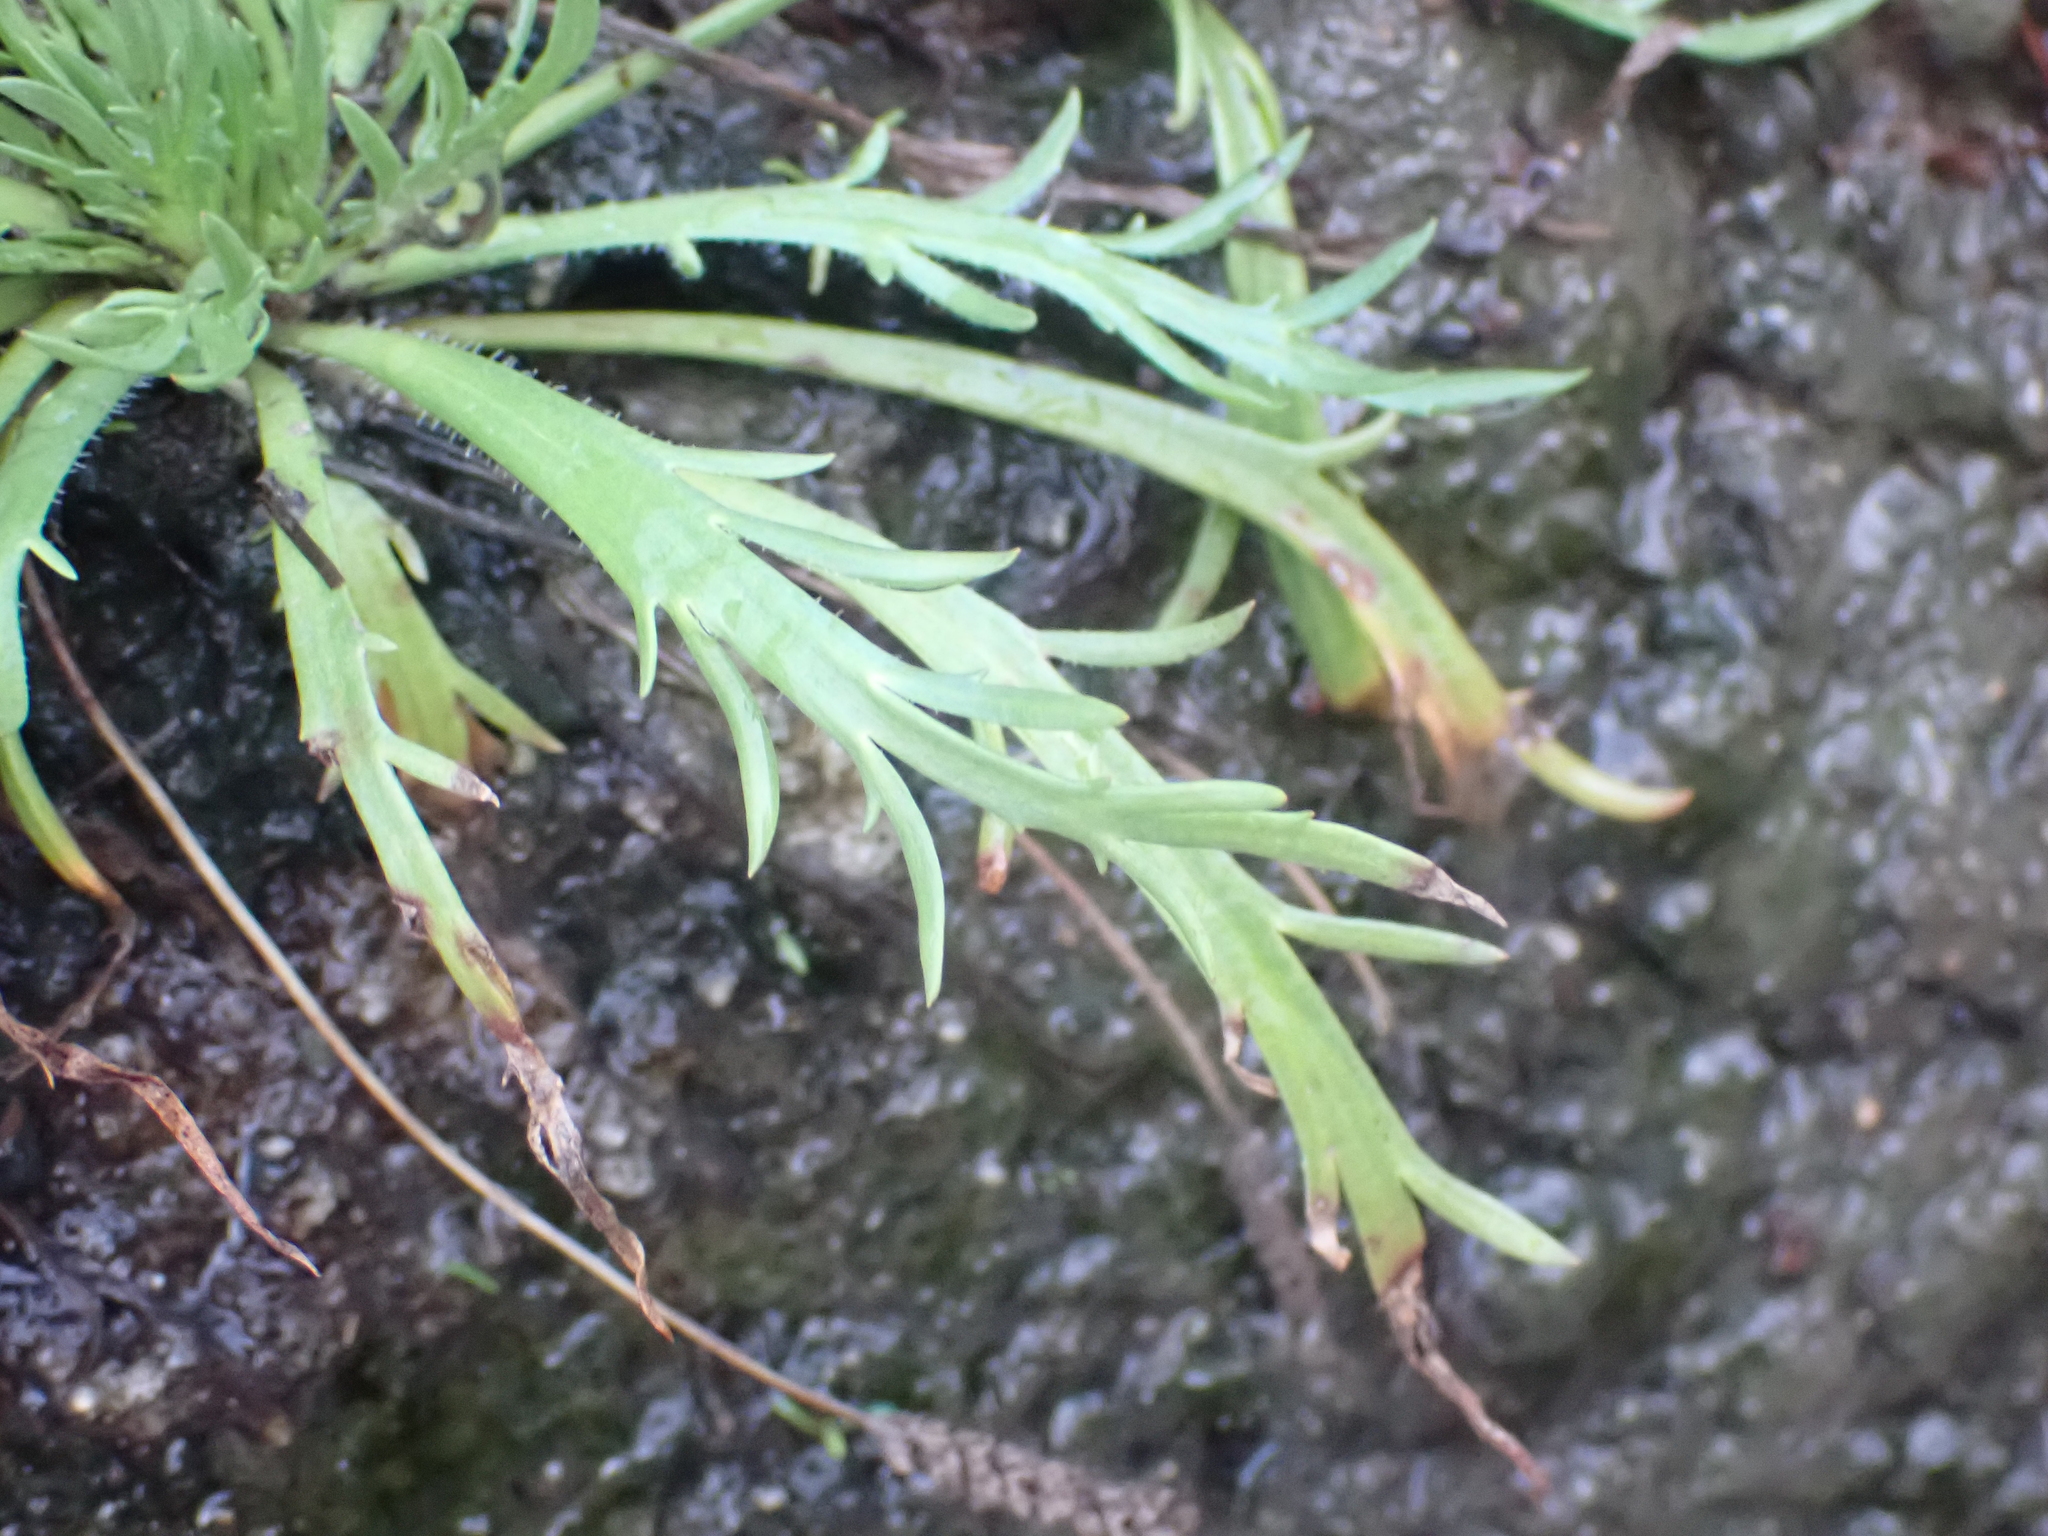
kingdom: Plantae
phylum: Tracheophyta
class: Magnoliopsida
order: Lamiales
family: Plantaginaceae
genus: Plantago
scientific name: Plantago coronopus
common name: Buck's-horn plantain
